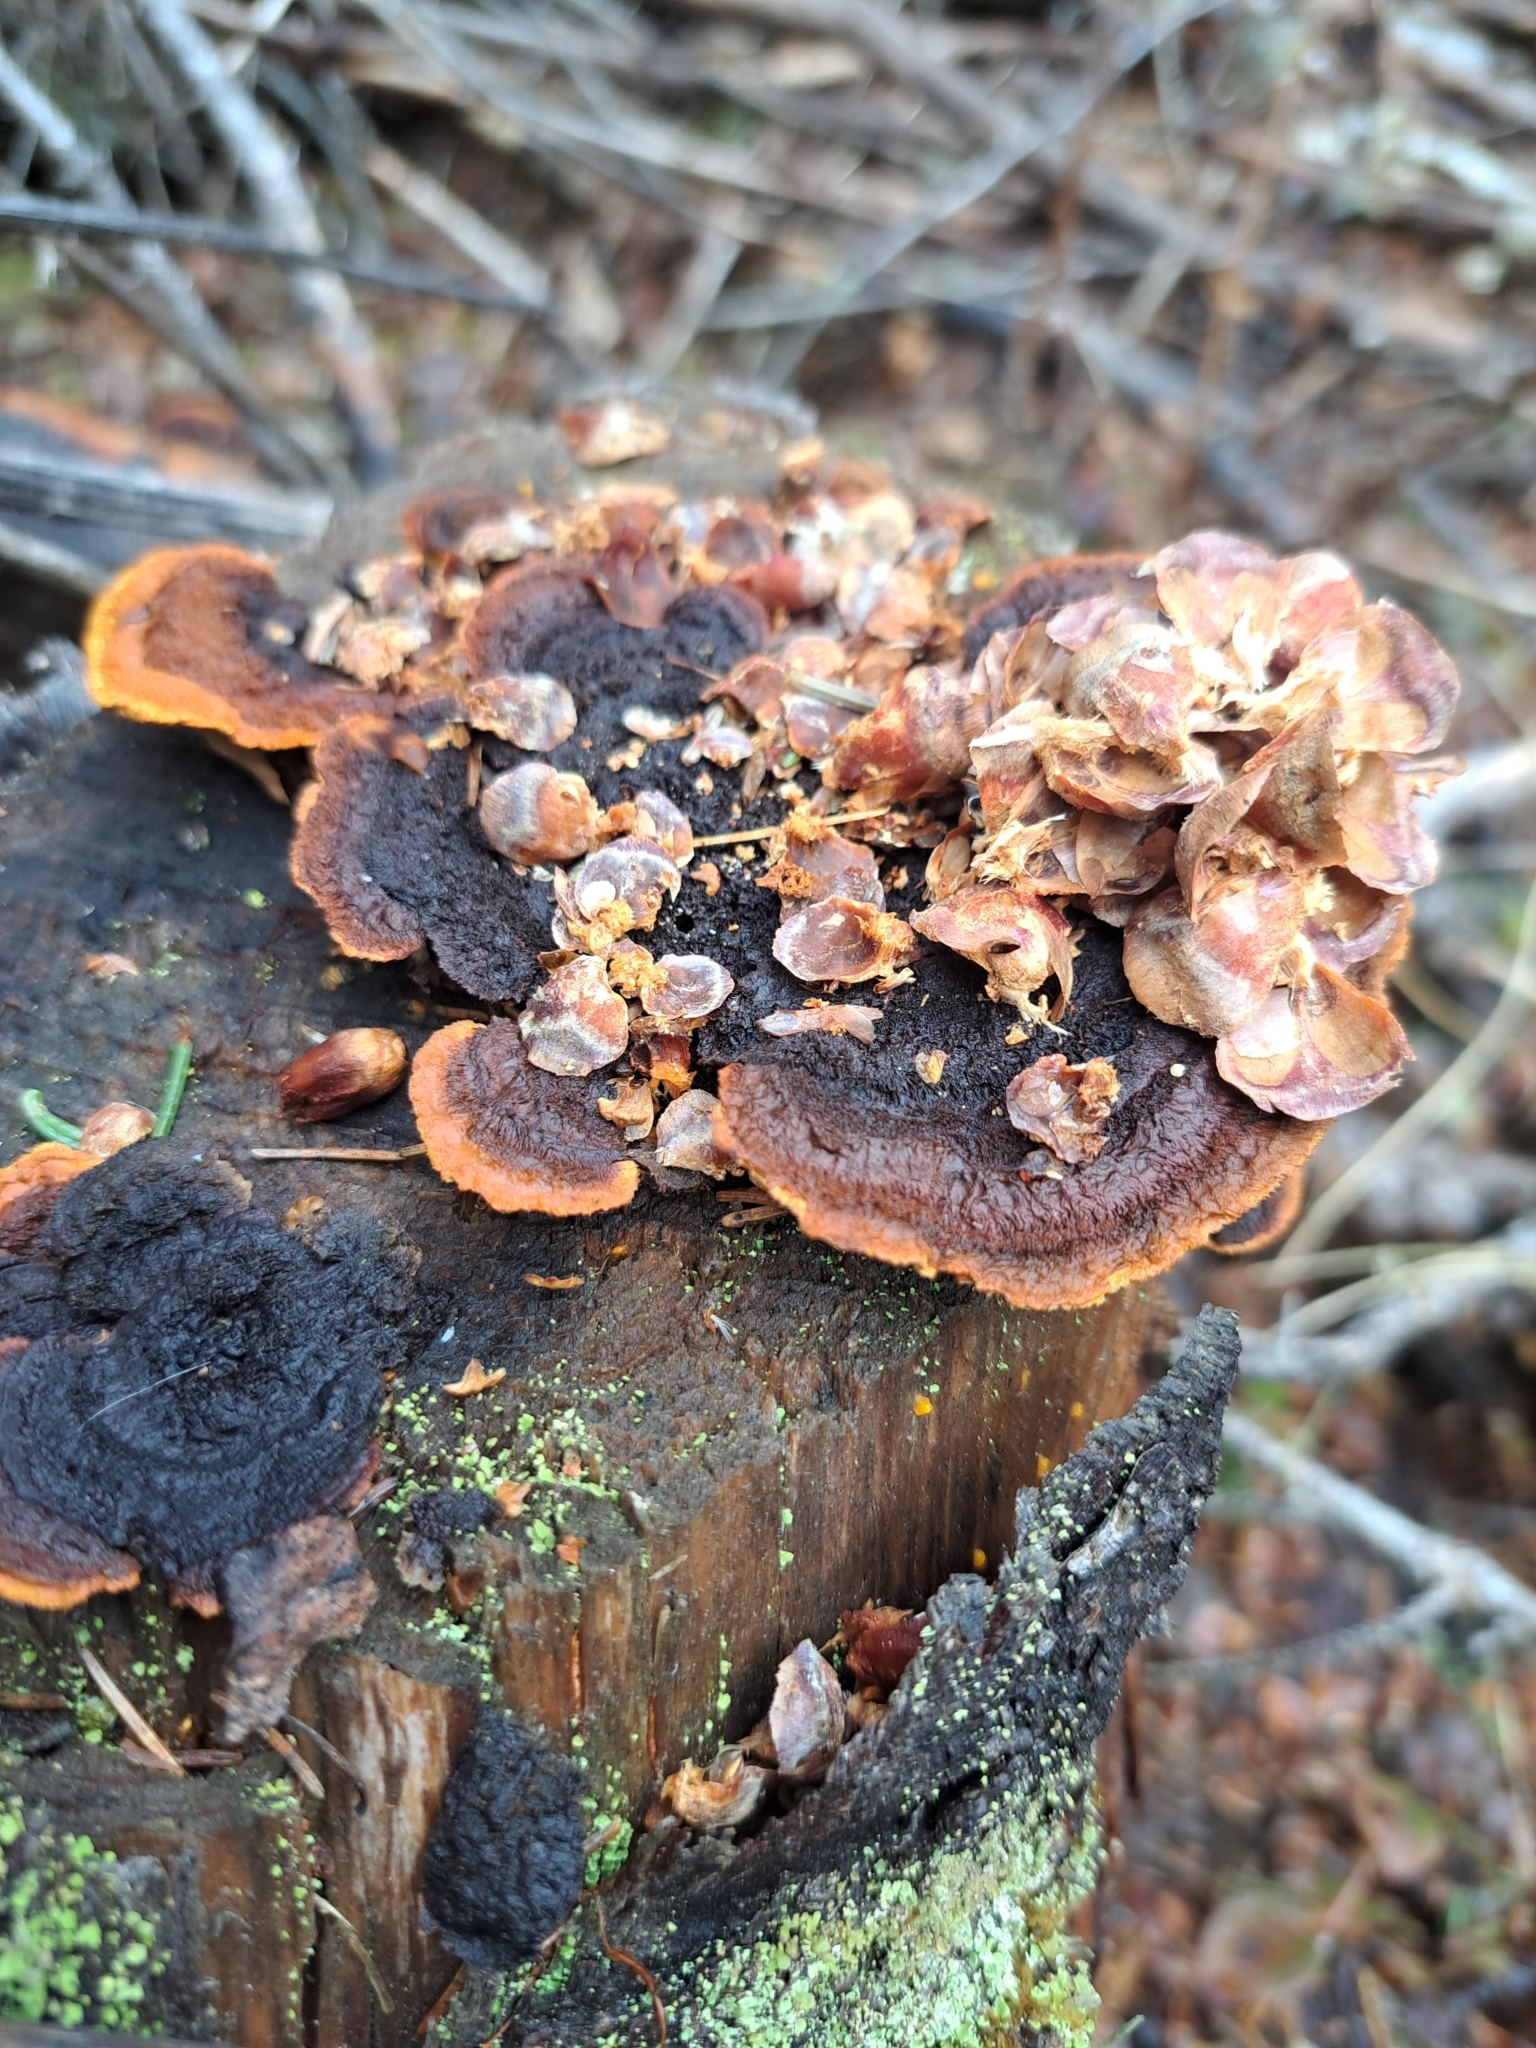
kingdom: Fungi
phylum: Basidiomycota
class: Agaricomycetes
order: Gloeophyllales
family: Gloeophyllaceae
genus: Gloeophyllum
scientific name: Gloeophyllum sepiarium
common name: Conifer mazegill
